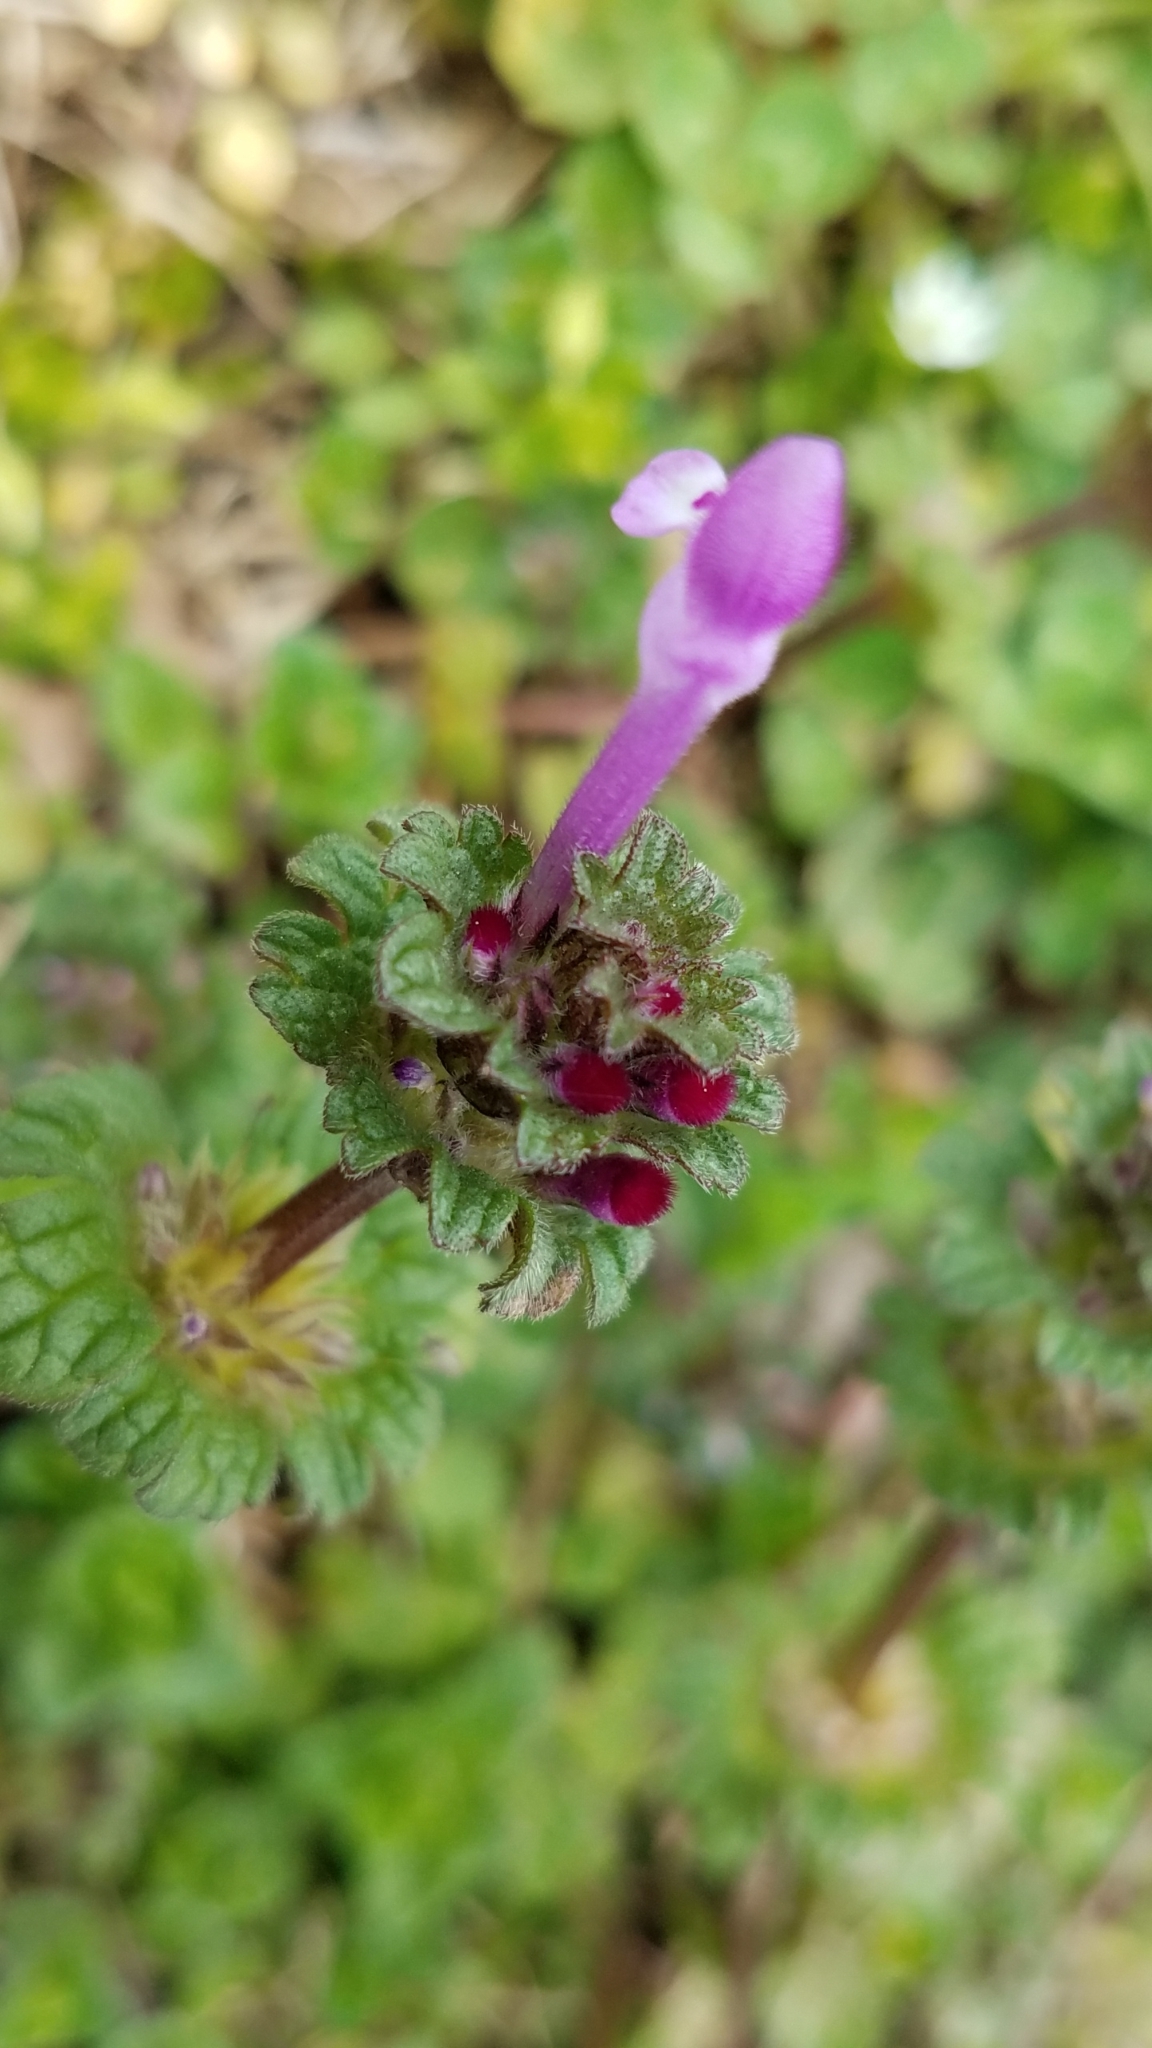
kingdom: Plantae
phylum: Tracheophyta
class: Magnoliopsida
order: Lamiales
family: Lamiaceae
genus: Lamium
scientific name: Lamium amplexicaule
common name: Henbit dead-nettle
